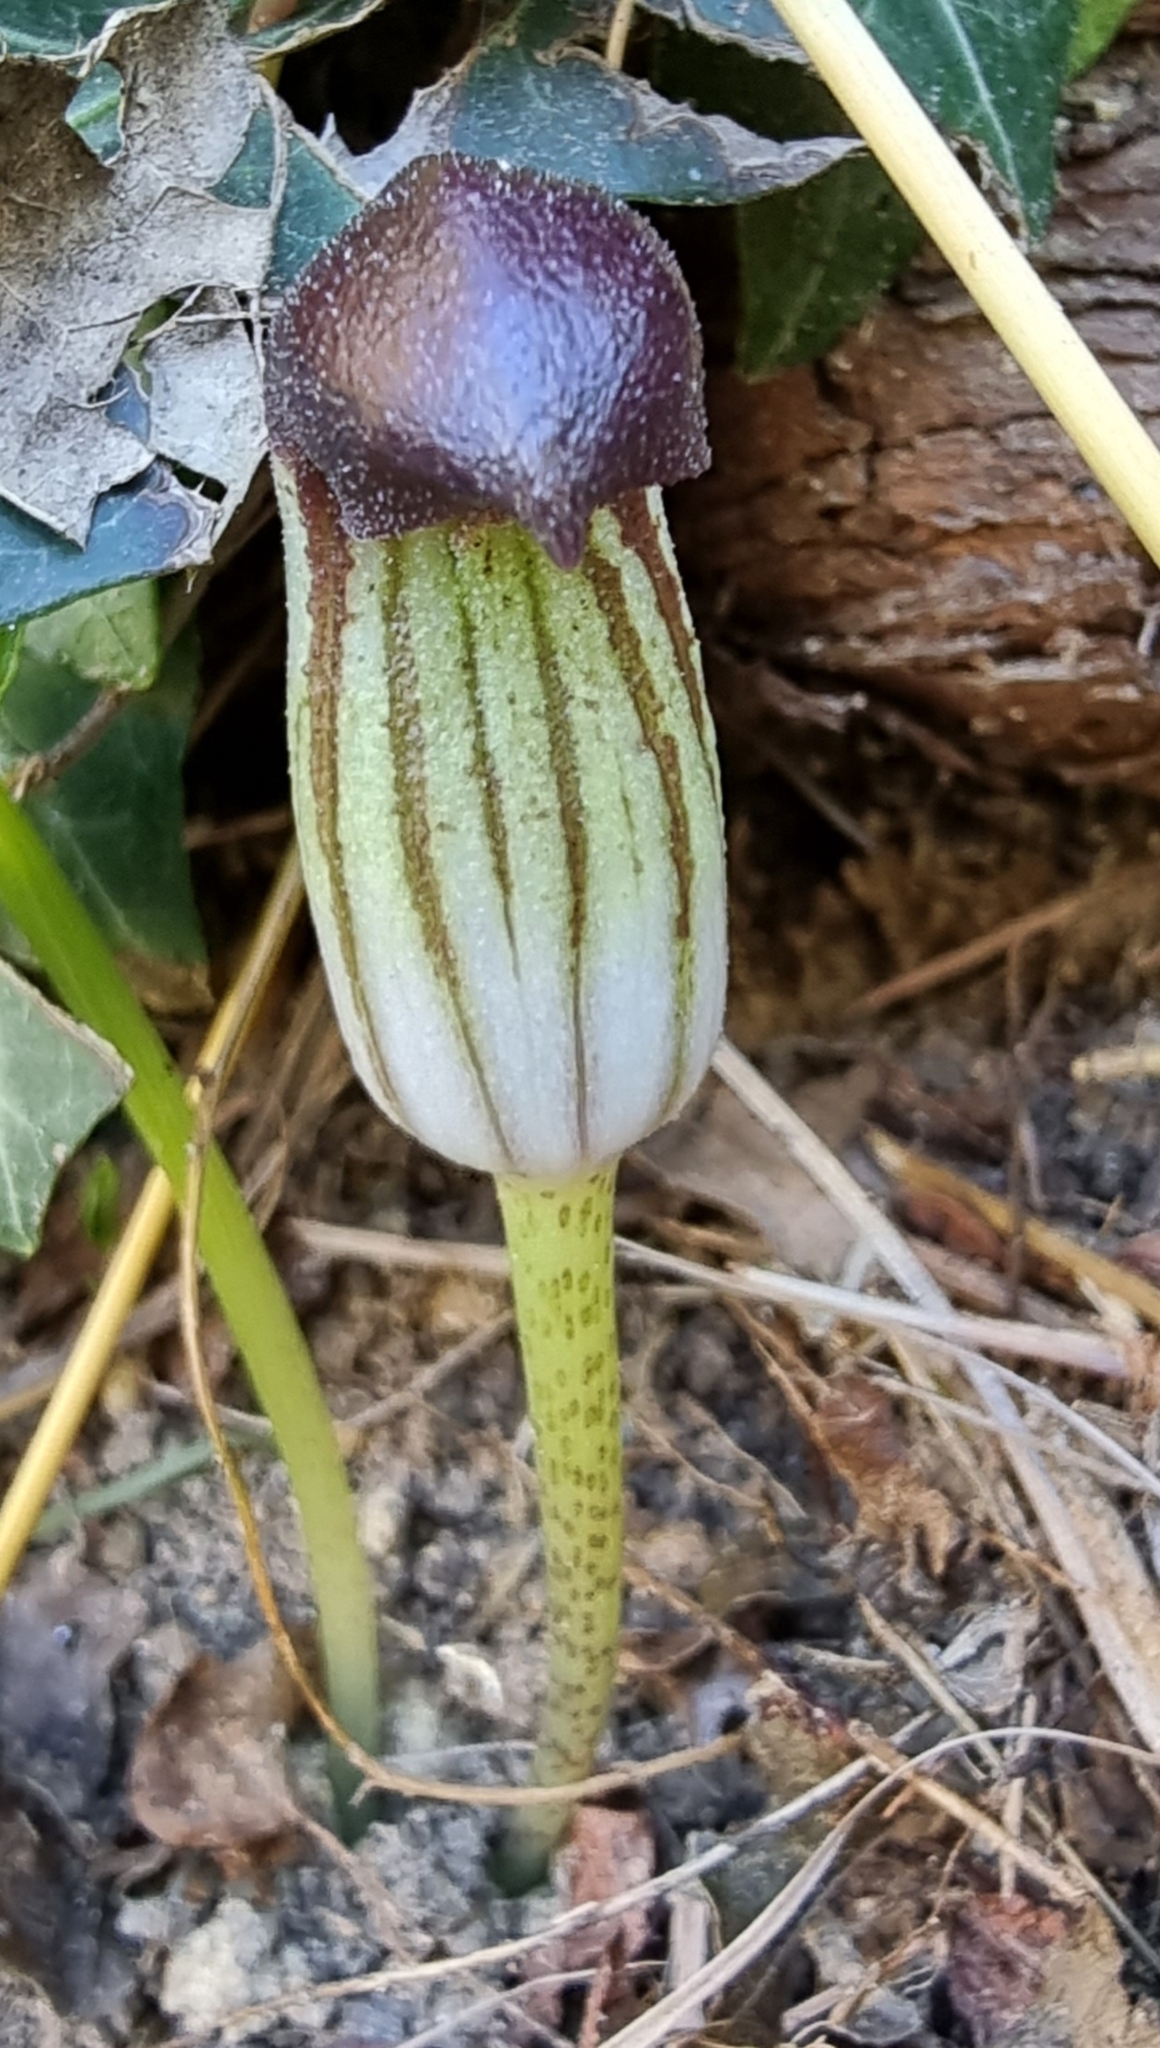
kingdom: Plantae
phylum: Tracheophyta
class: Liliopsida
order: Alismatales
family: Araceae
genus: Arisarum
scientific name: Arisarum vulgare
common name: Common arisarum
